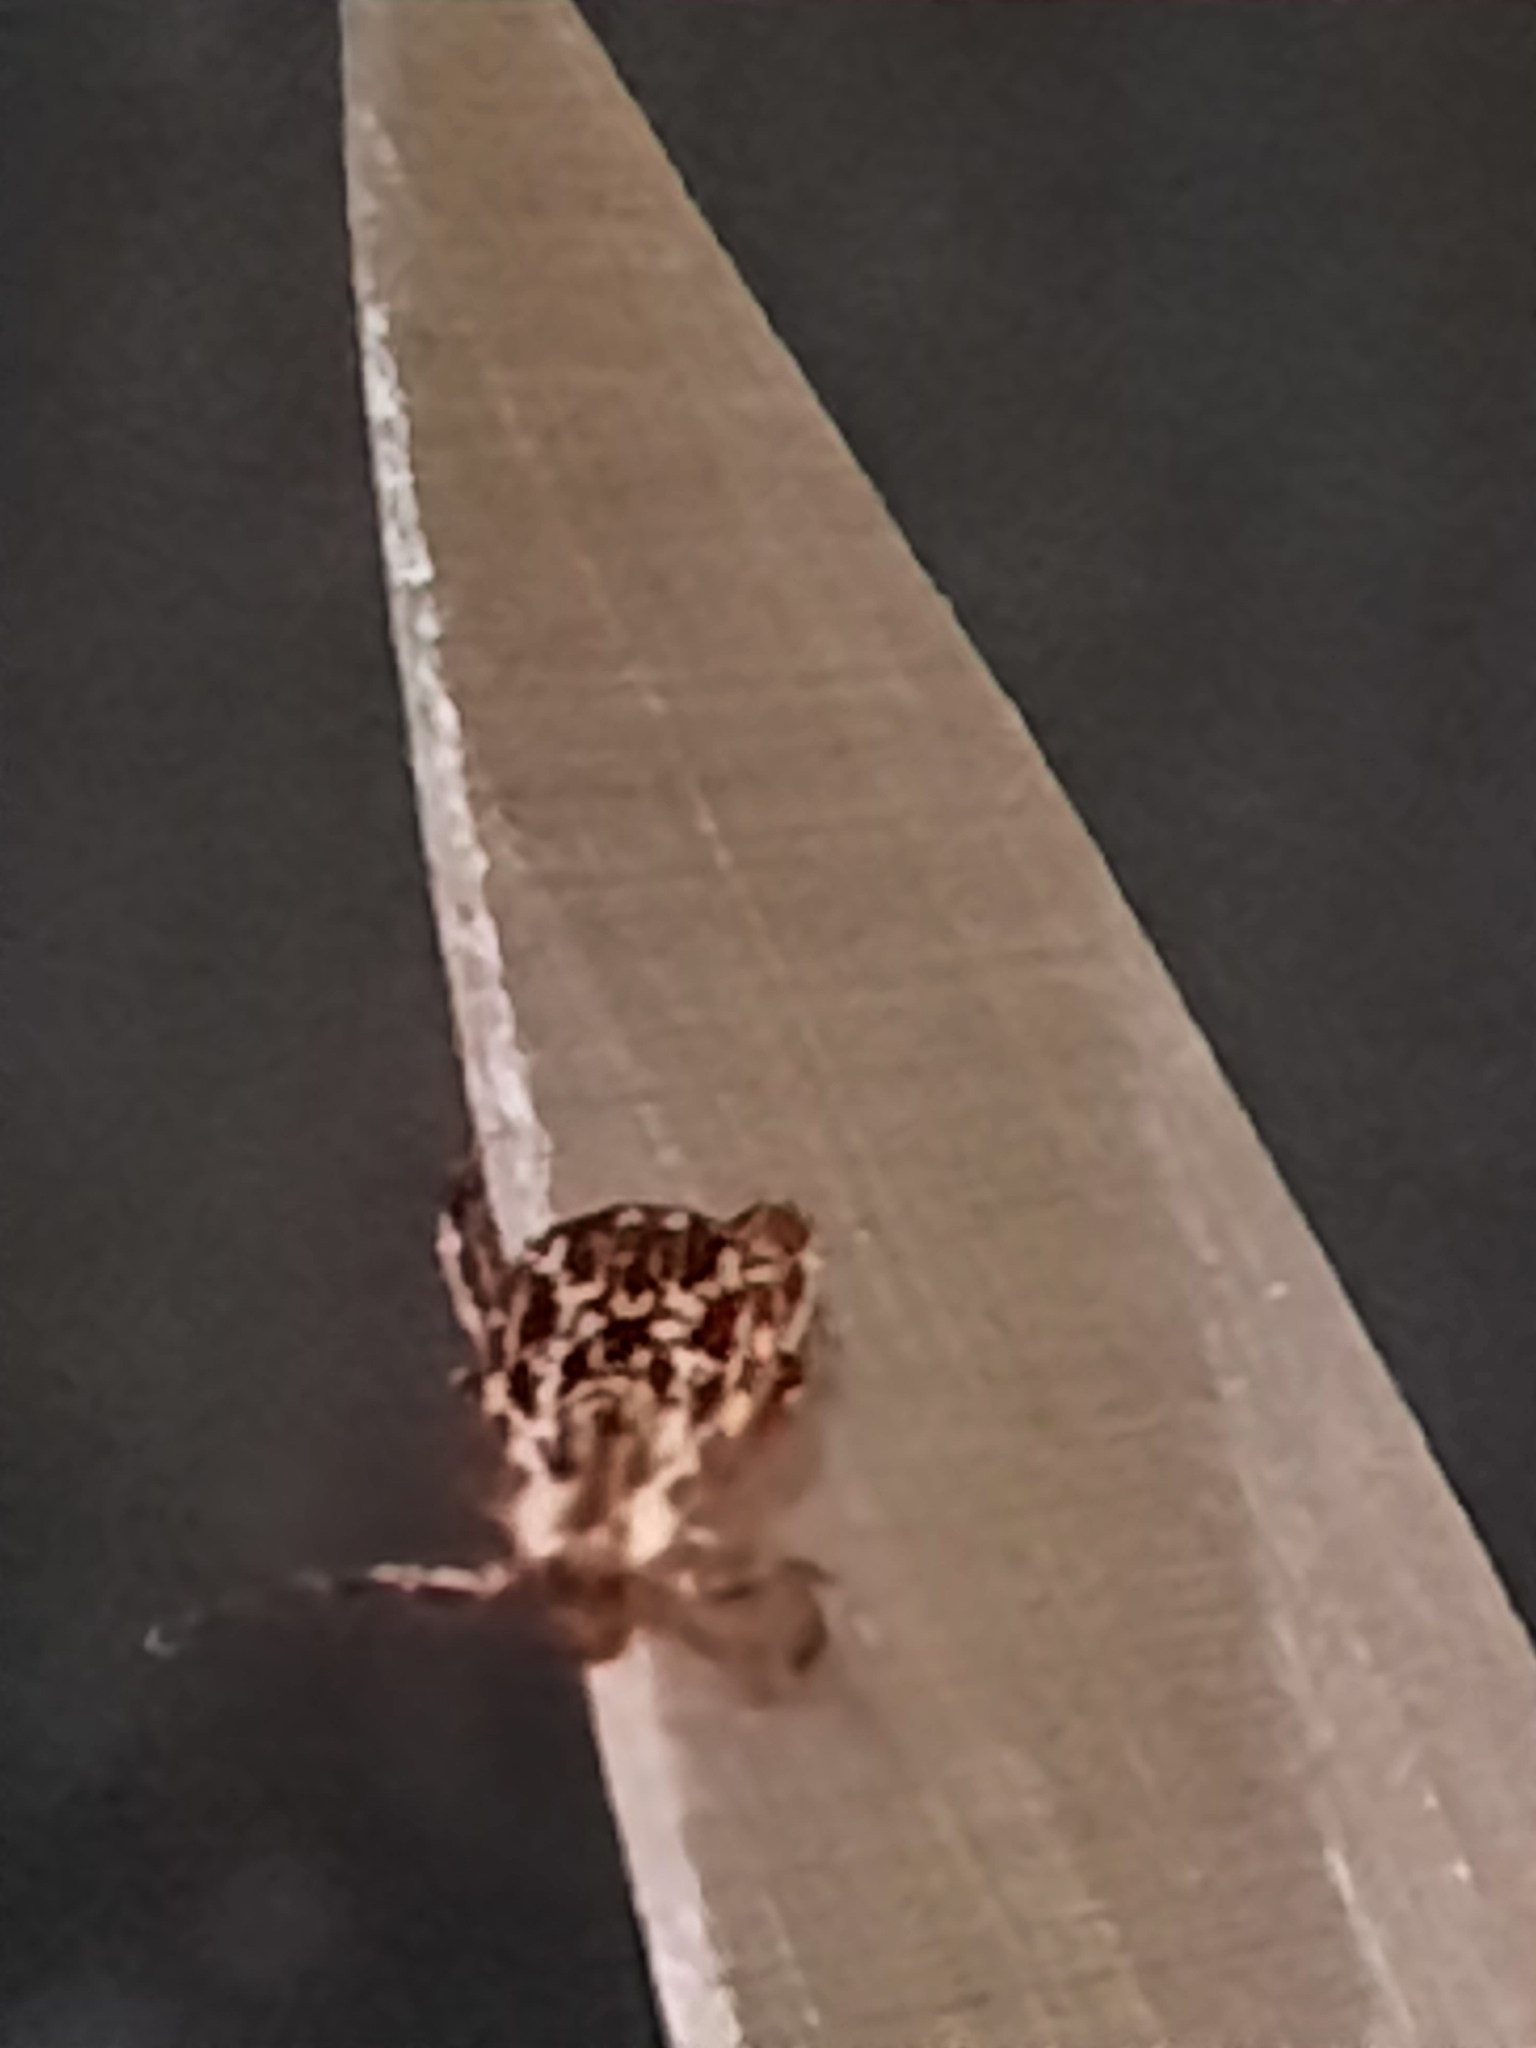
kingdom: Animalia
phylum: Arthropoda
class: Arachnida
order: Ixodida
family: Ixodidae
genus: Dermacentor
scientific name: Dermacentor variabilis
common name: American dog tick
